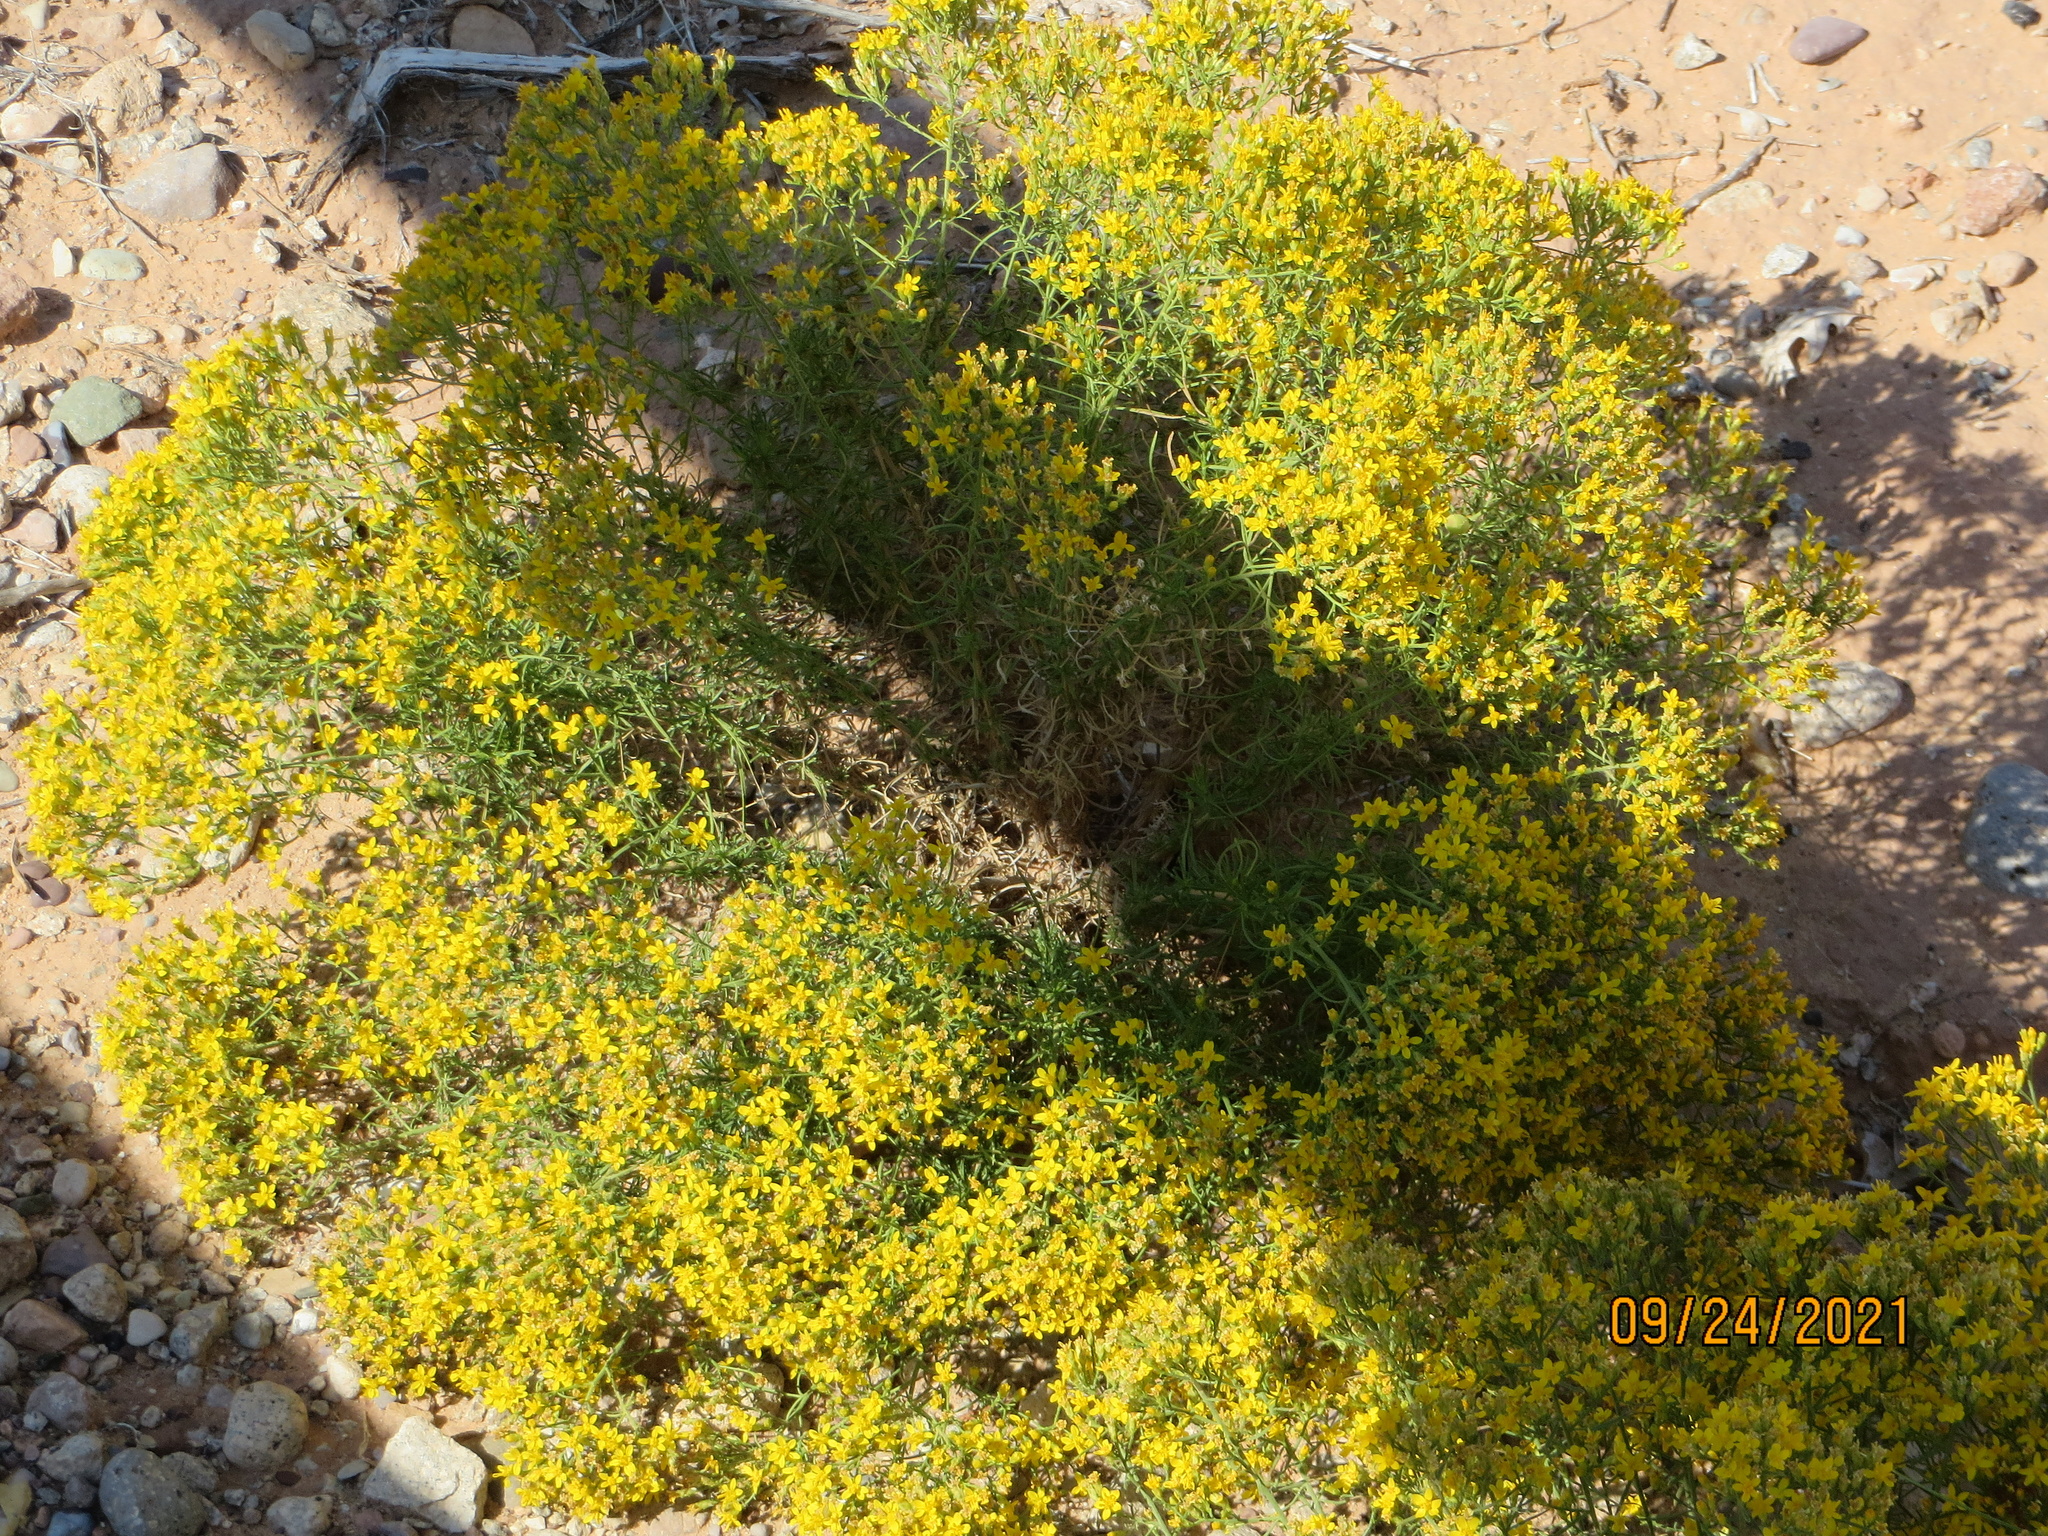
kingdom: Plantae
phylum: Tracheophyta
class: Magnoliopsida
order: Asterales
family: Asteraceae
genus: Gutierrezia
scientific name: Gutierrezia sarothrae
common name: Broom snakeweed
